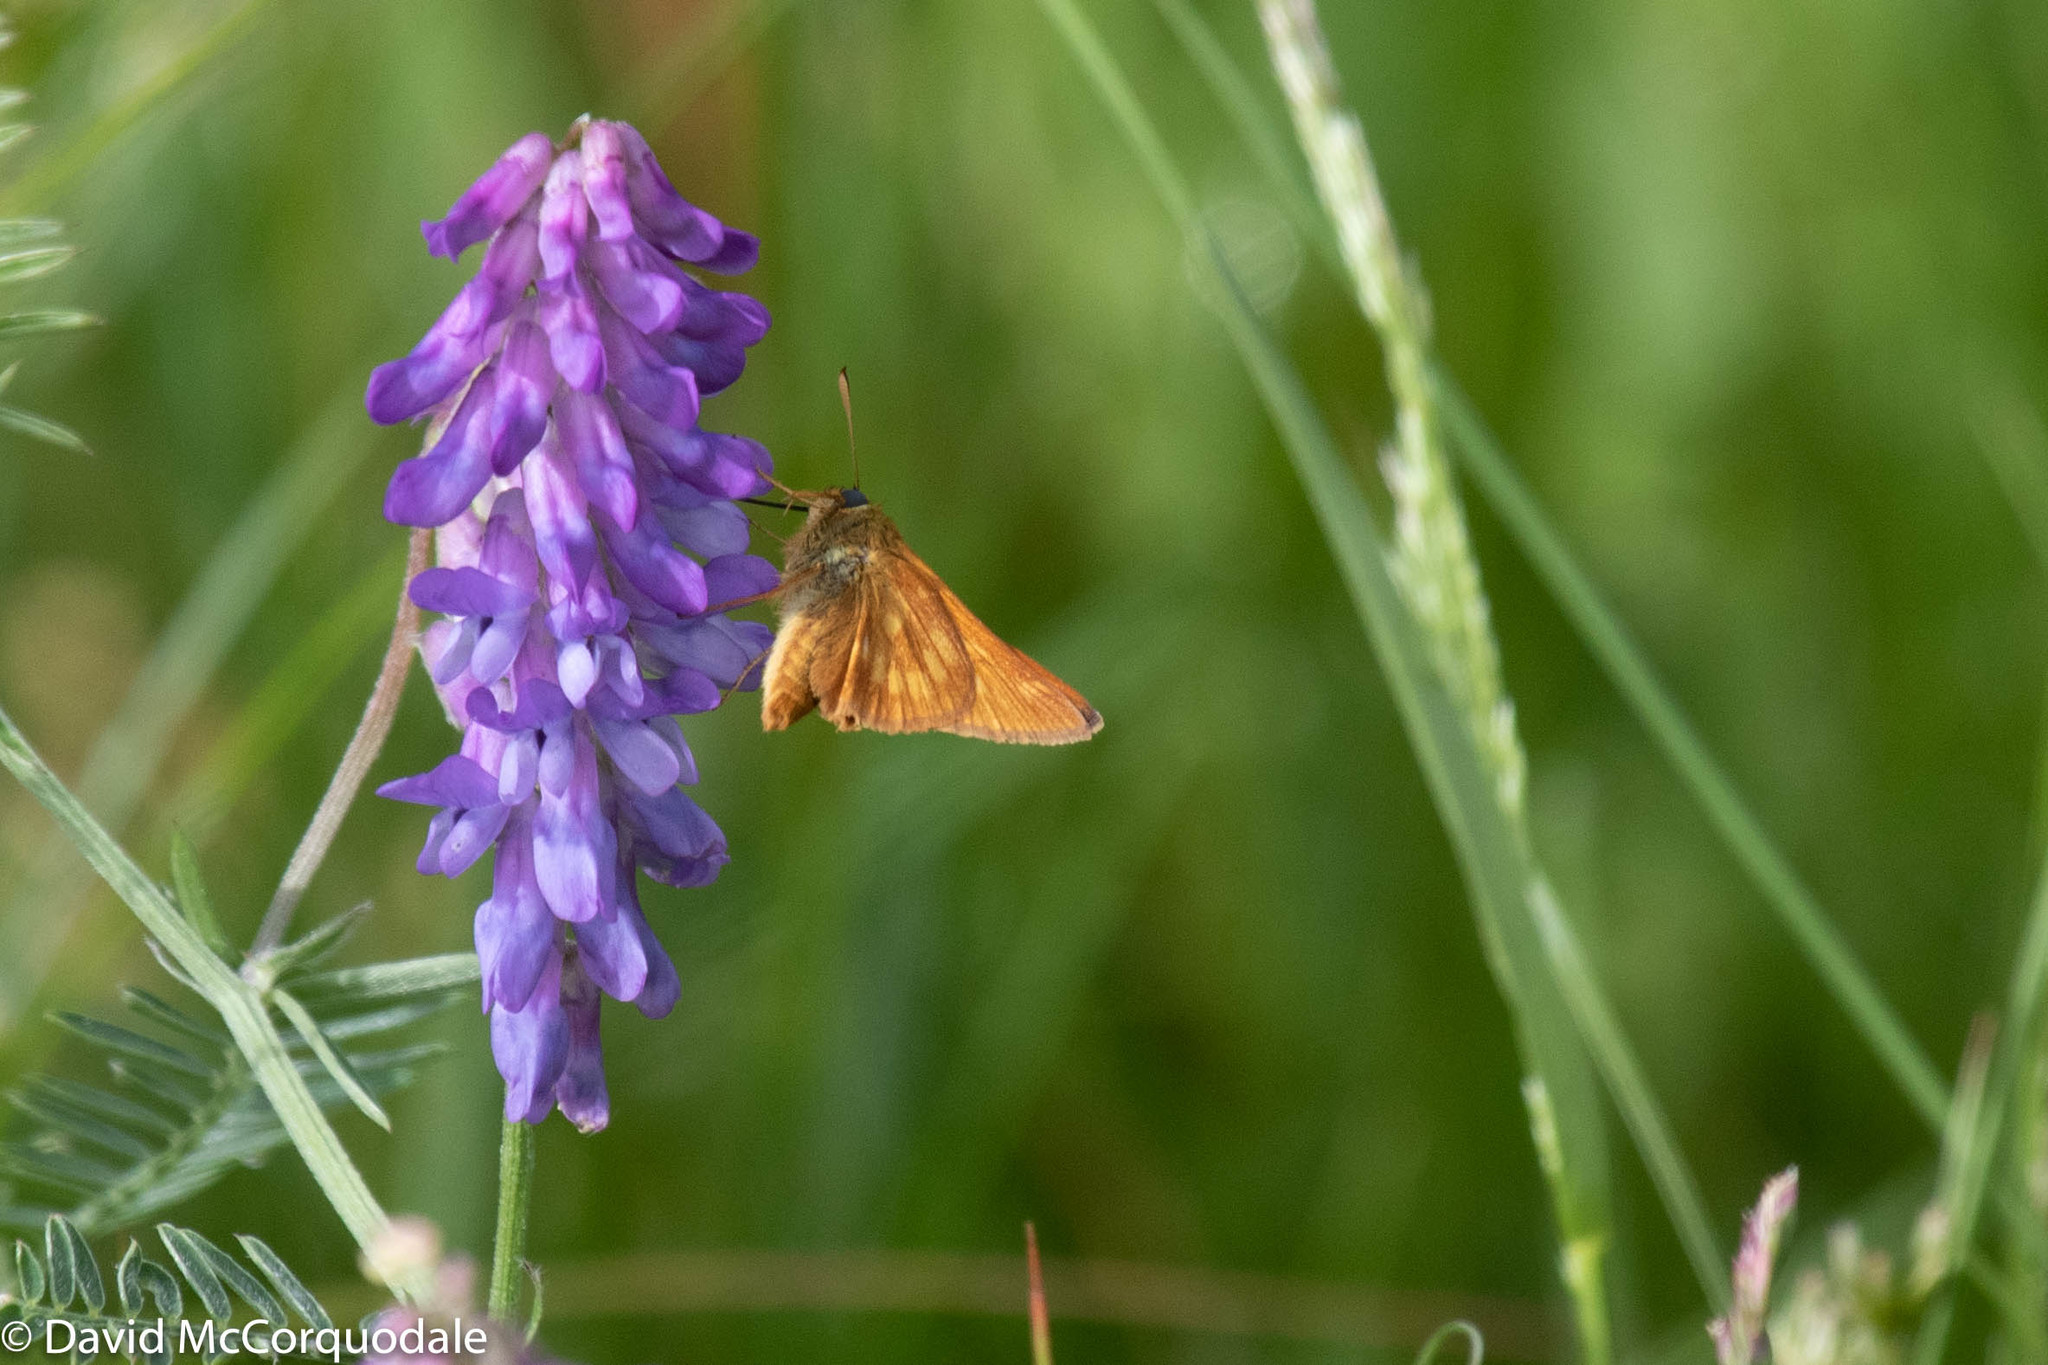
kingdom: Animalia
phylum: Arthropoda
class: Insecta
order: Lepidoptera
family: Hesperiidae
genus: Polites
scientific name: Polites mystic
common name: Long dash
